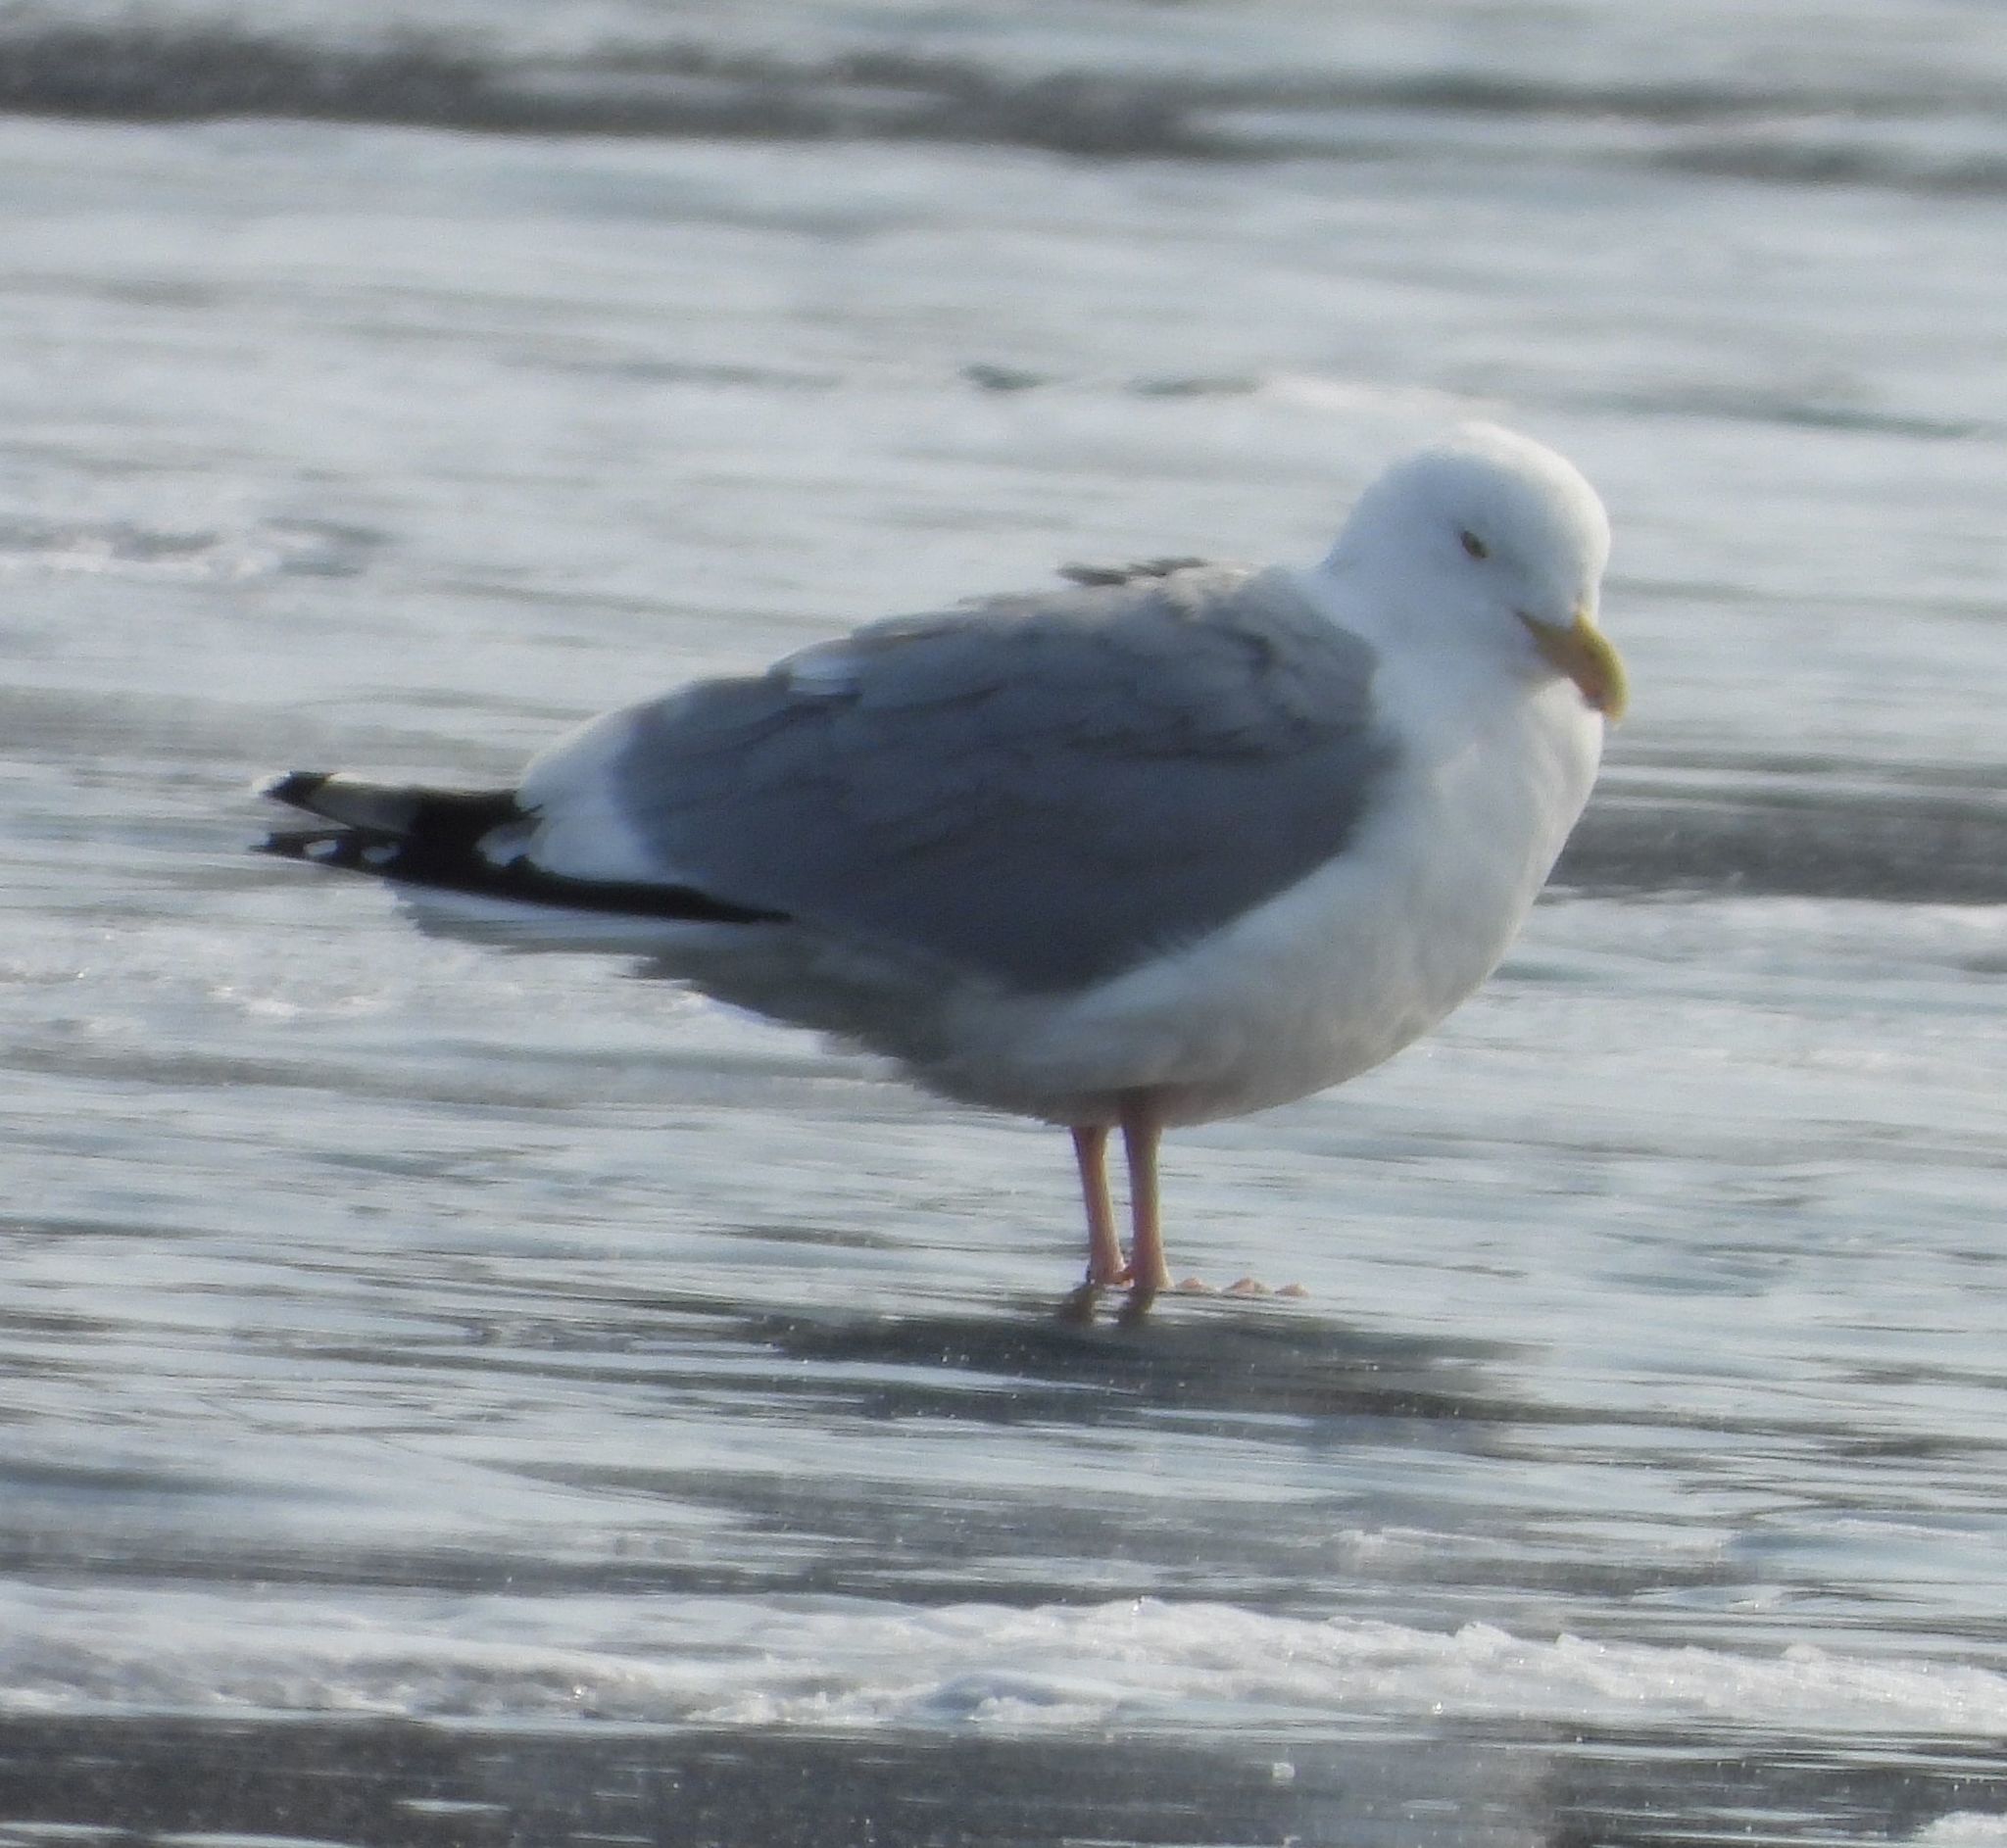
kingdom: Animalia
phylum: Chordata
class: Aves
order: Charadriiformes
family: Laridae
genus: Larus
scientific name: Larus argentatus
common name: Herring gull
